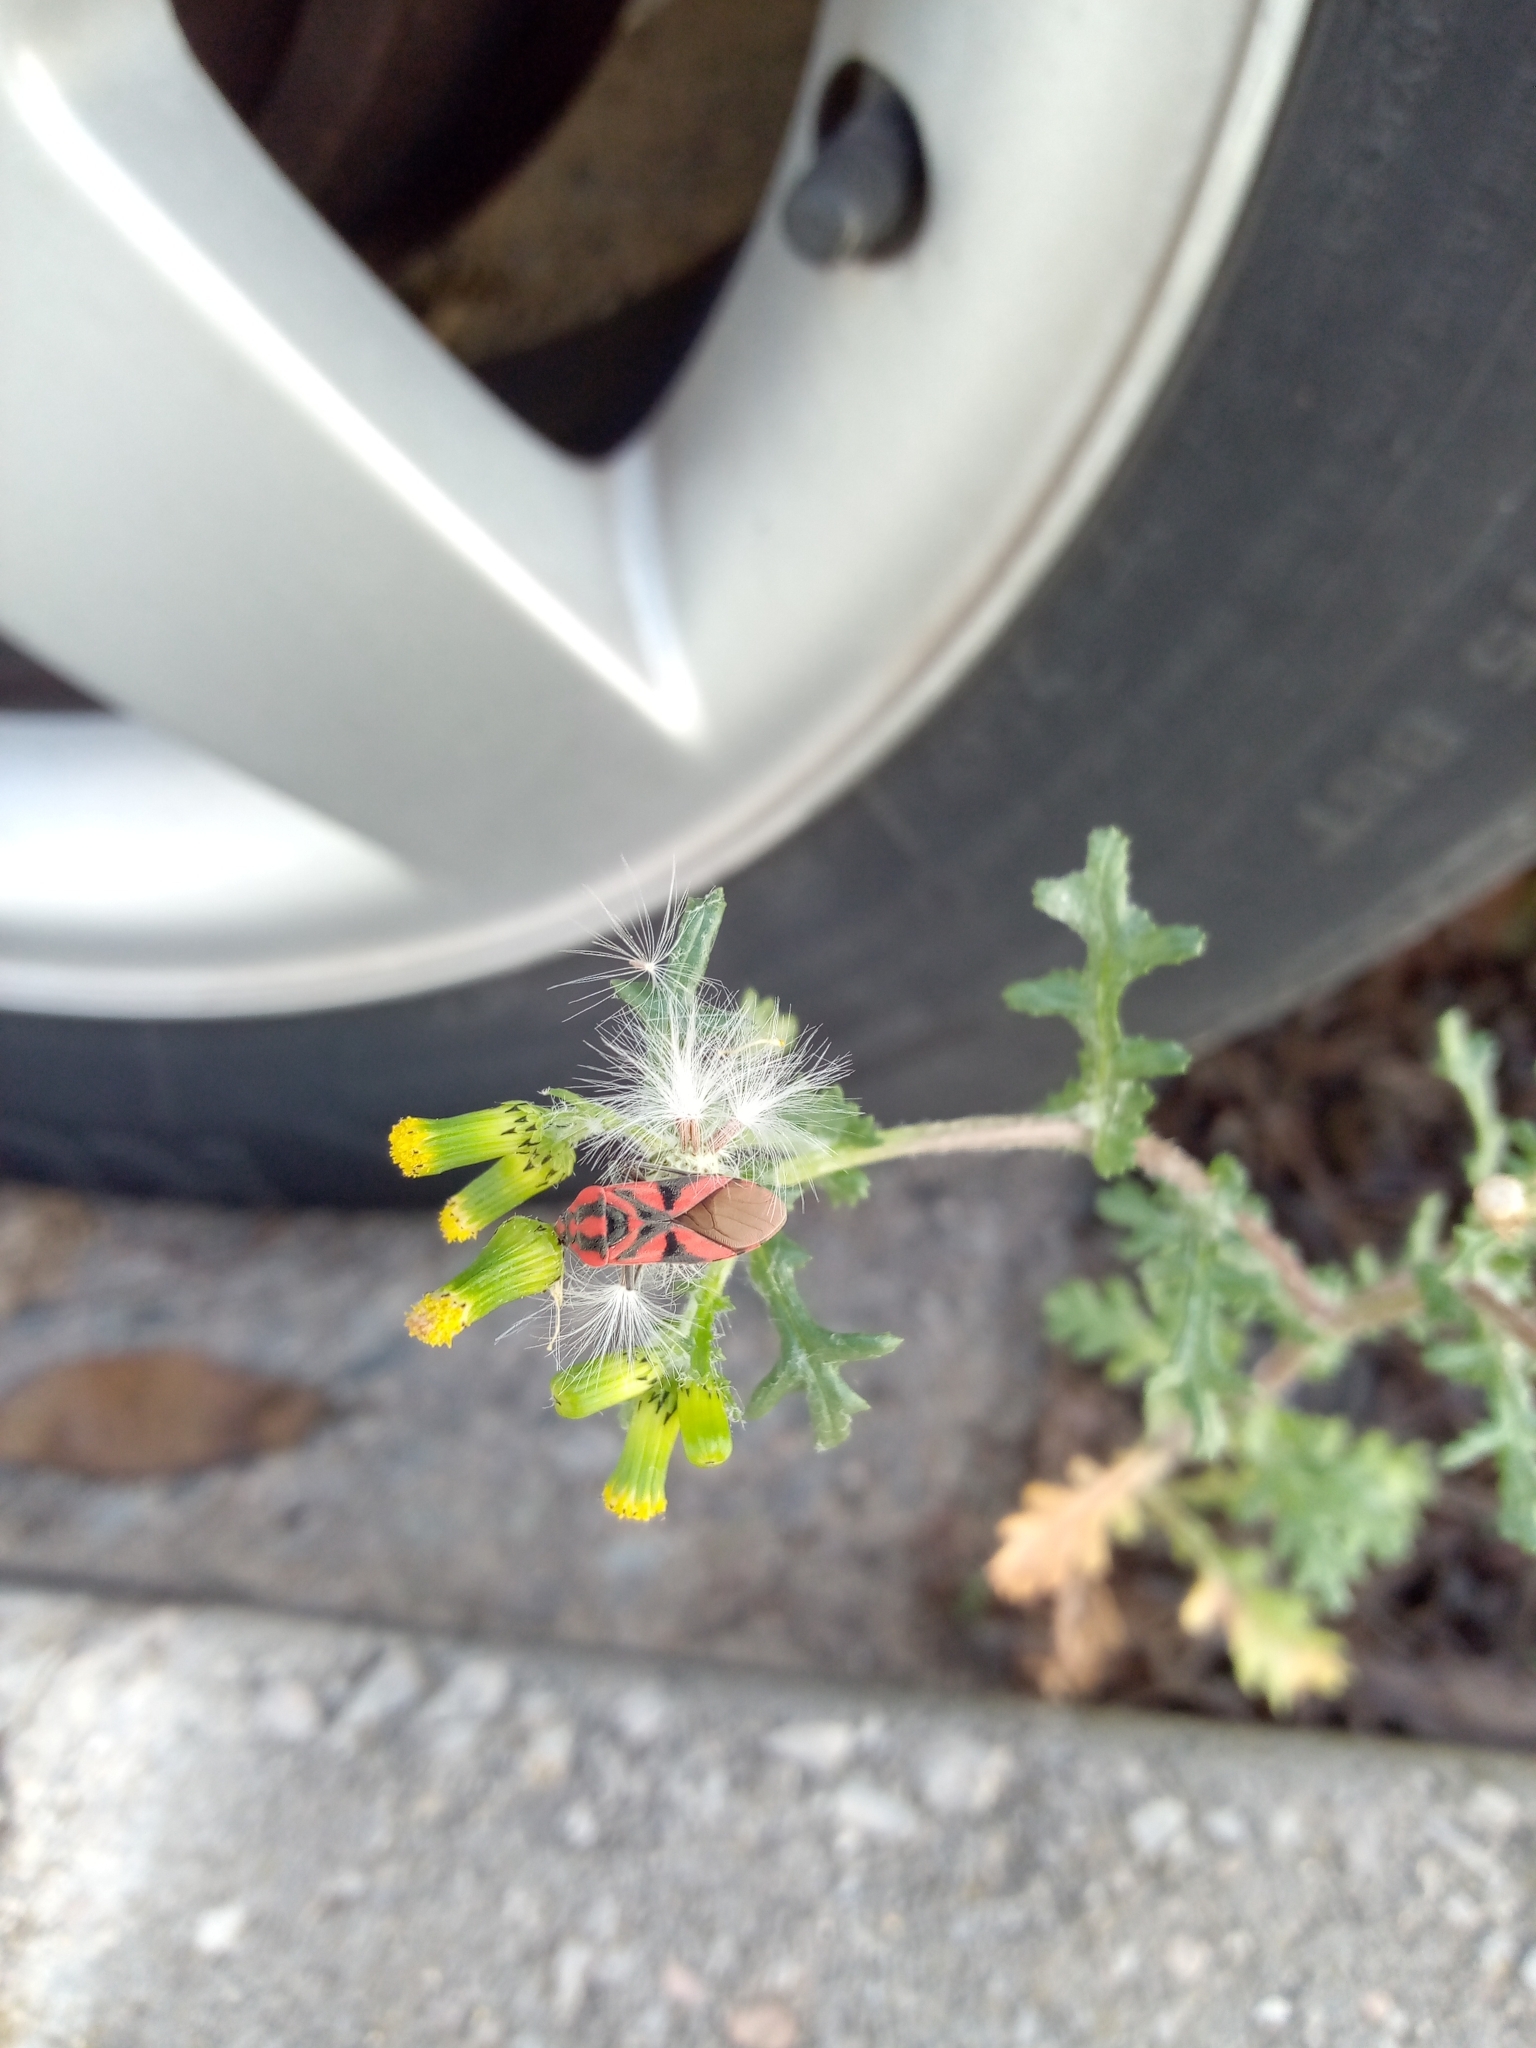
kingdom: Animalia
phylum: Arthropoda
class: Insecta
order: Hemiptera
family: Lygaeidae
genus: Spilostethus
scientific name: Spilostethus furcula
